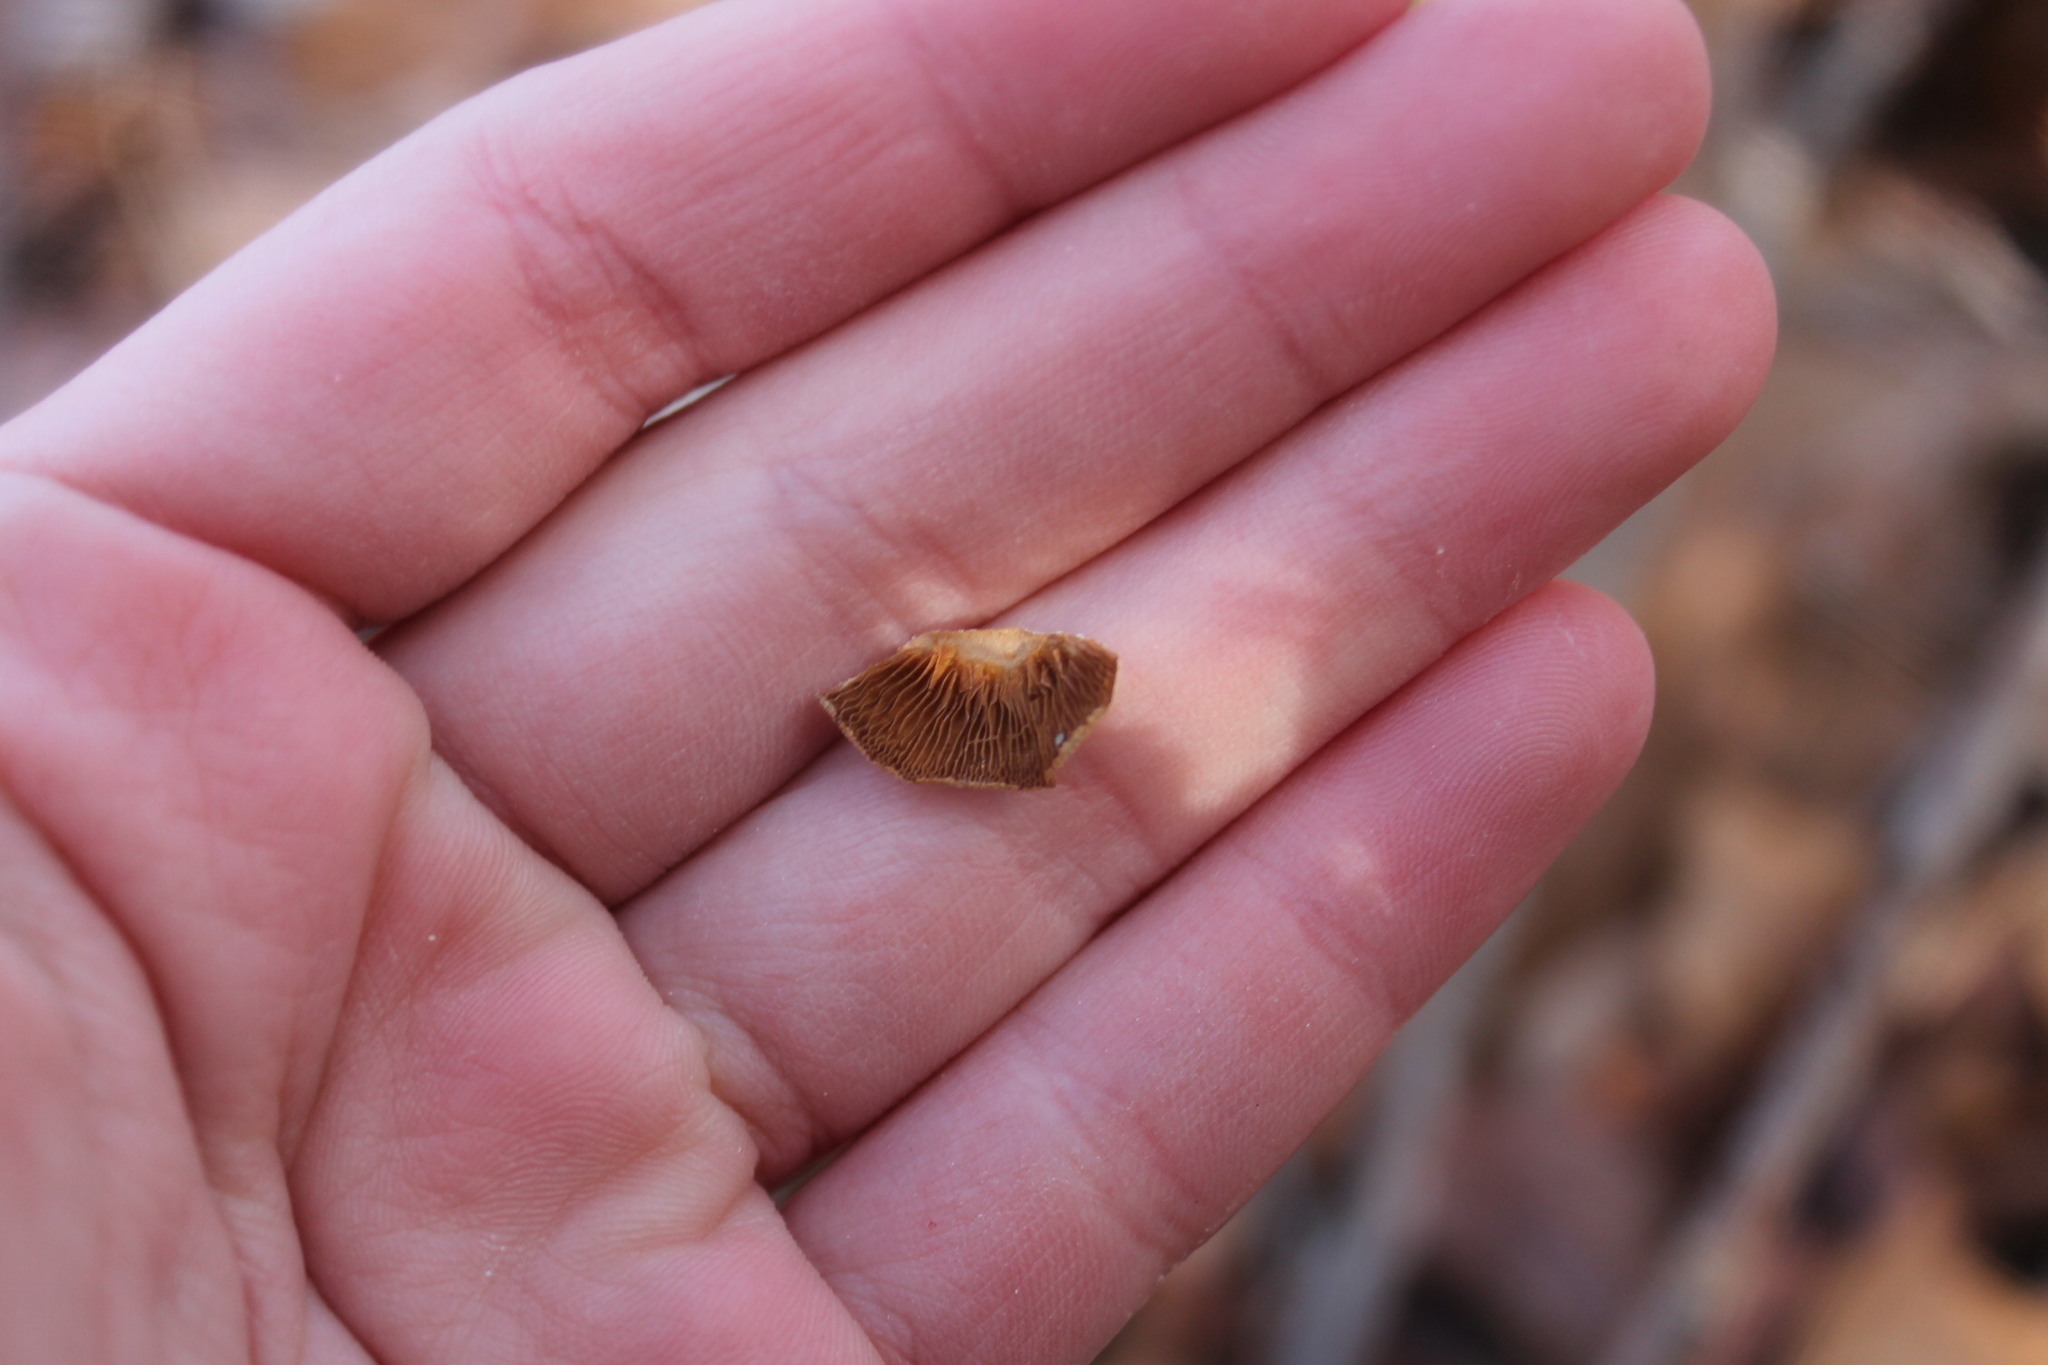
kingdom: Fungi
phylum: Basidiomycota
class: Agaricomycetes
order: Agaricales
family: Mycenaceae
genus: Panellus
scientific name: Panellus stipticus
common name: Bitter oysterling
